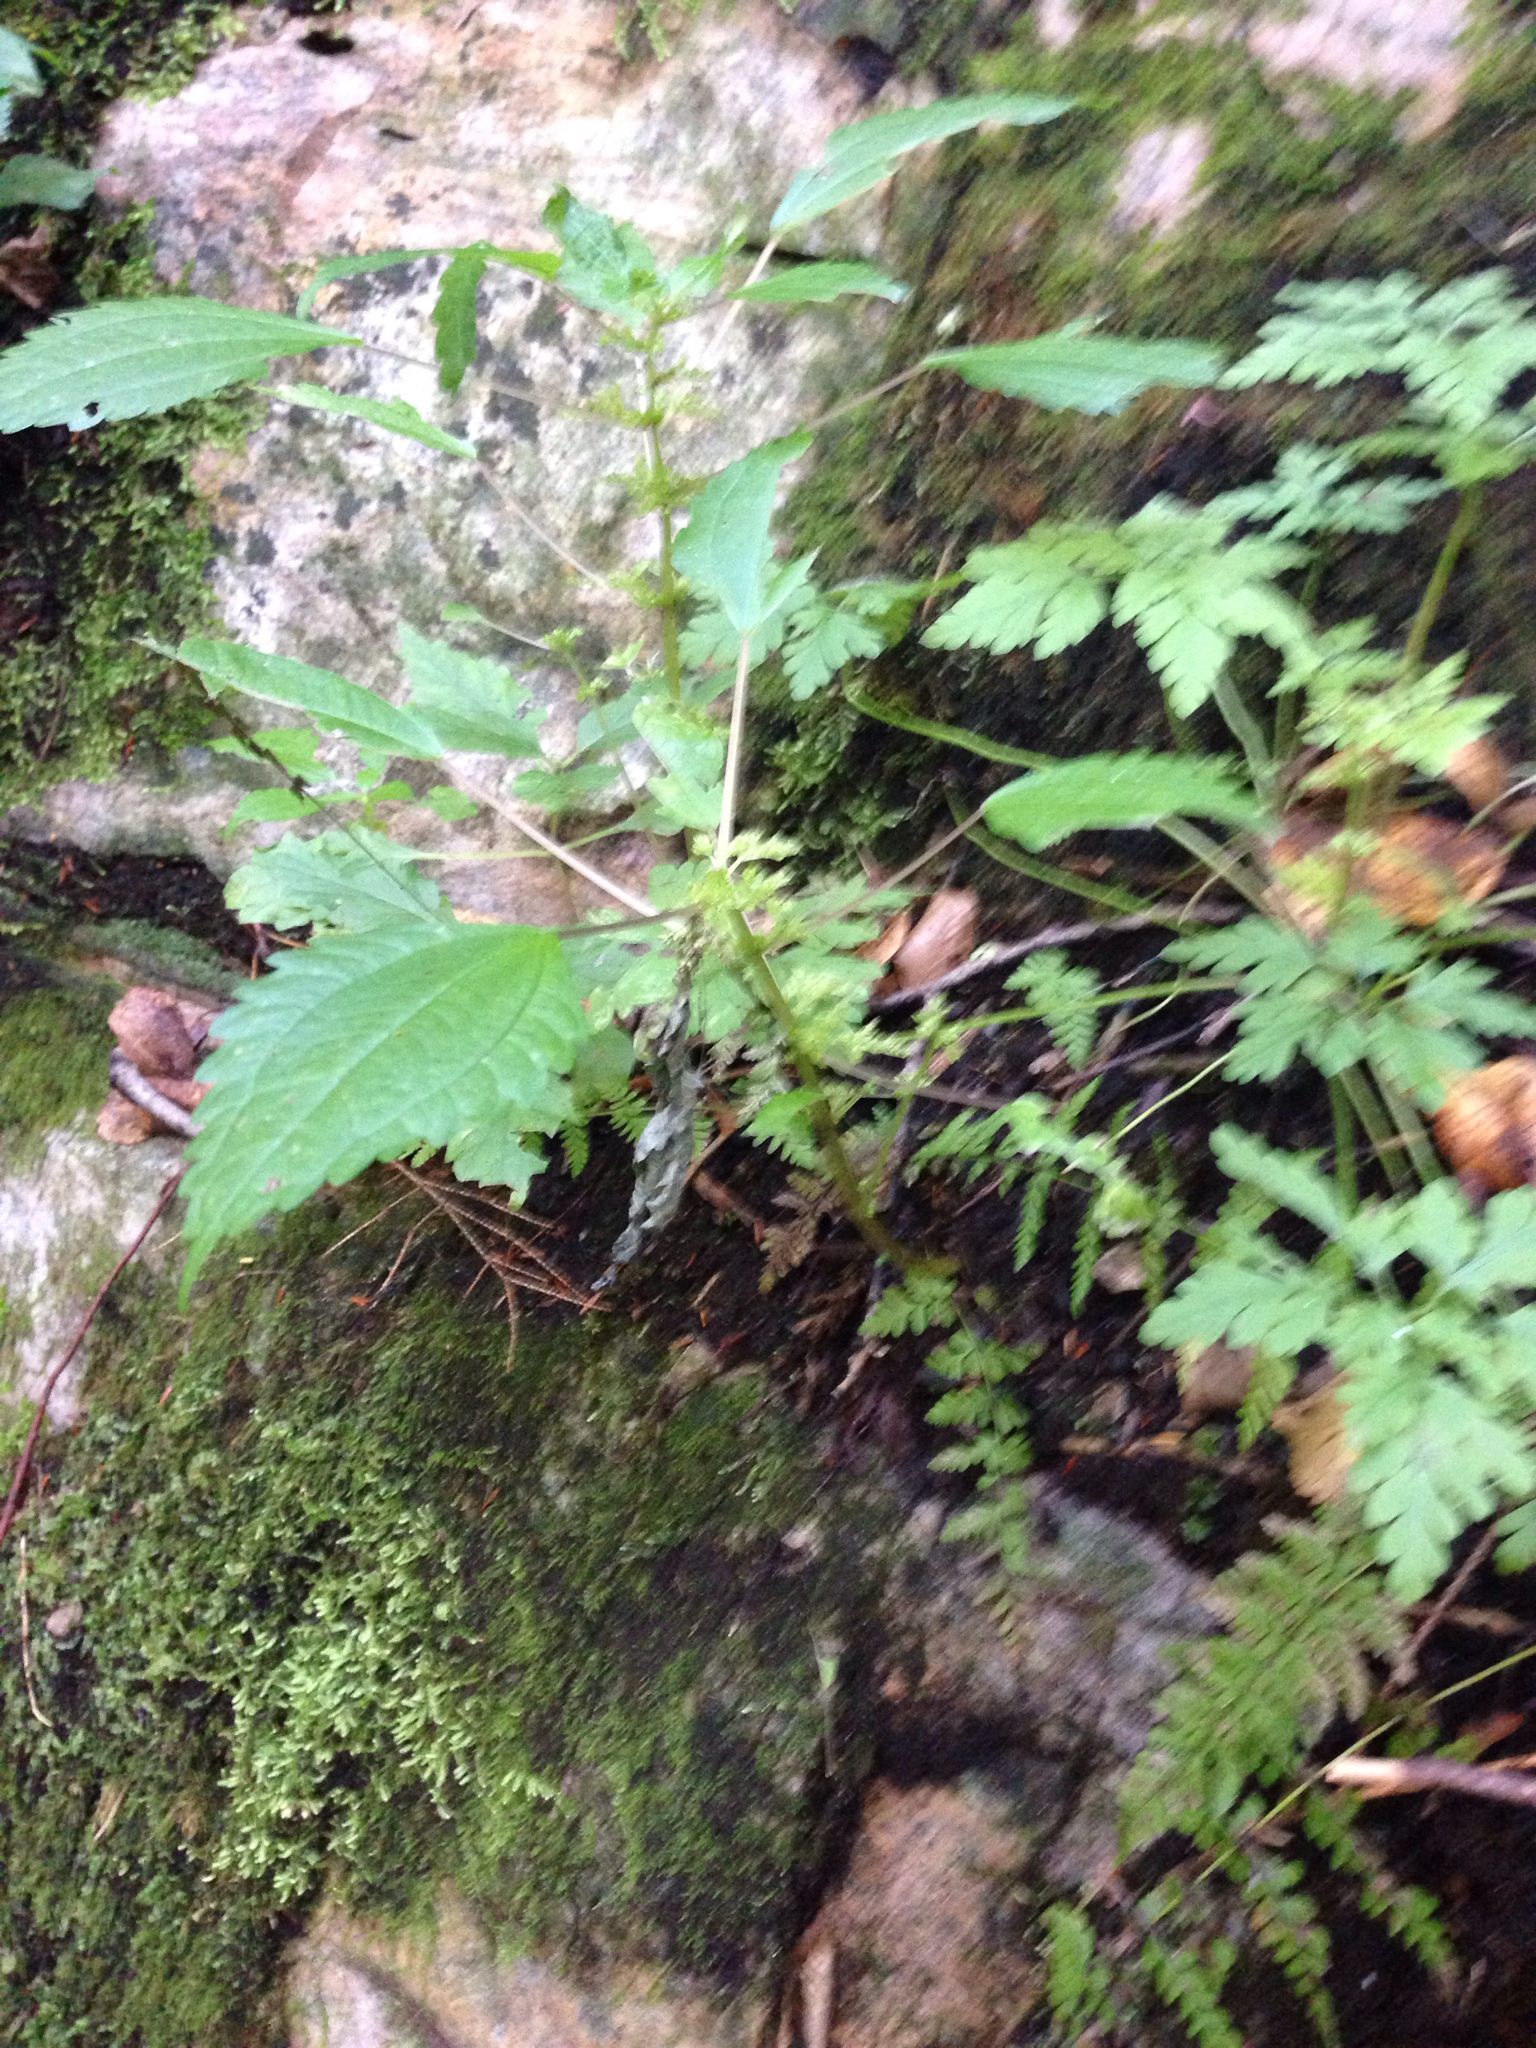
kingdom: Plantae
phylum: Tracheophyta
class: Magnoliopsida
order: Rosales
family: Urticaceae
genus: Pilea
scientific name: Pilea pumila
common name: Clearweed
